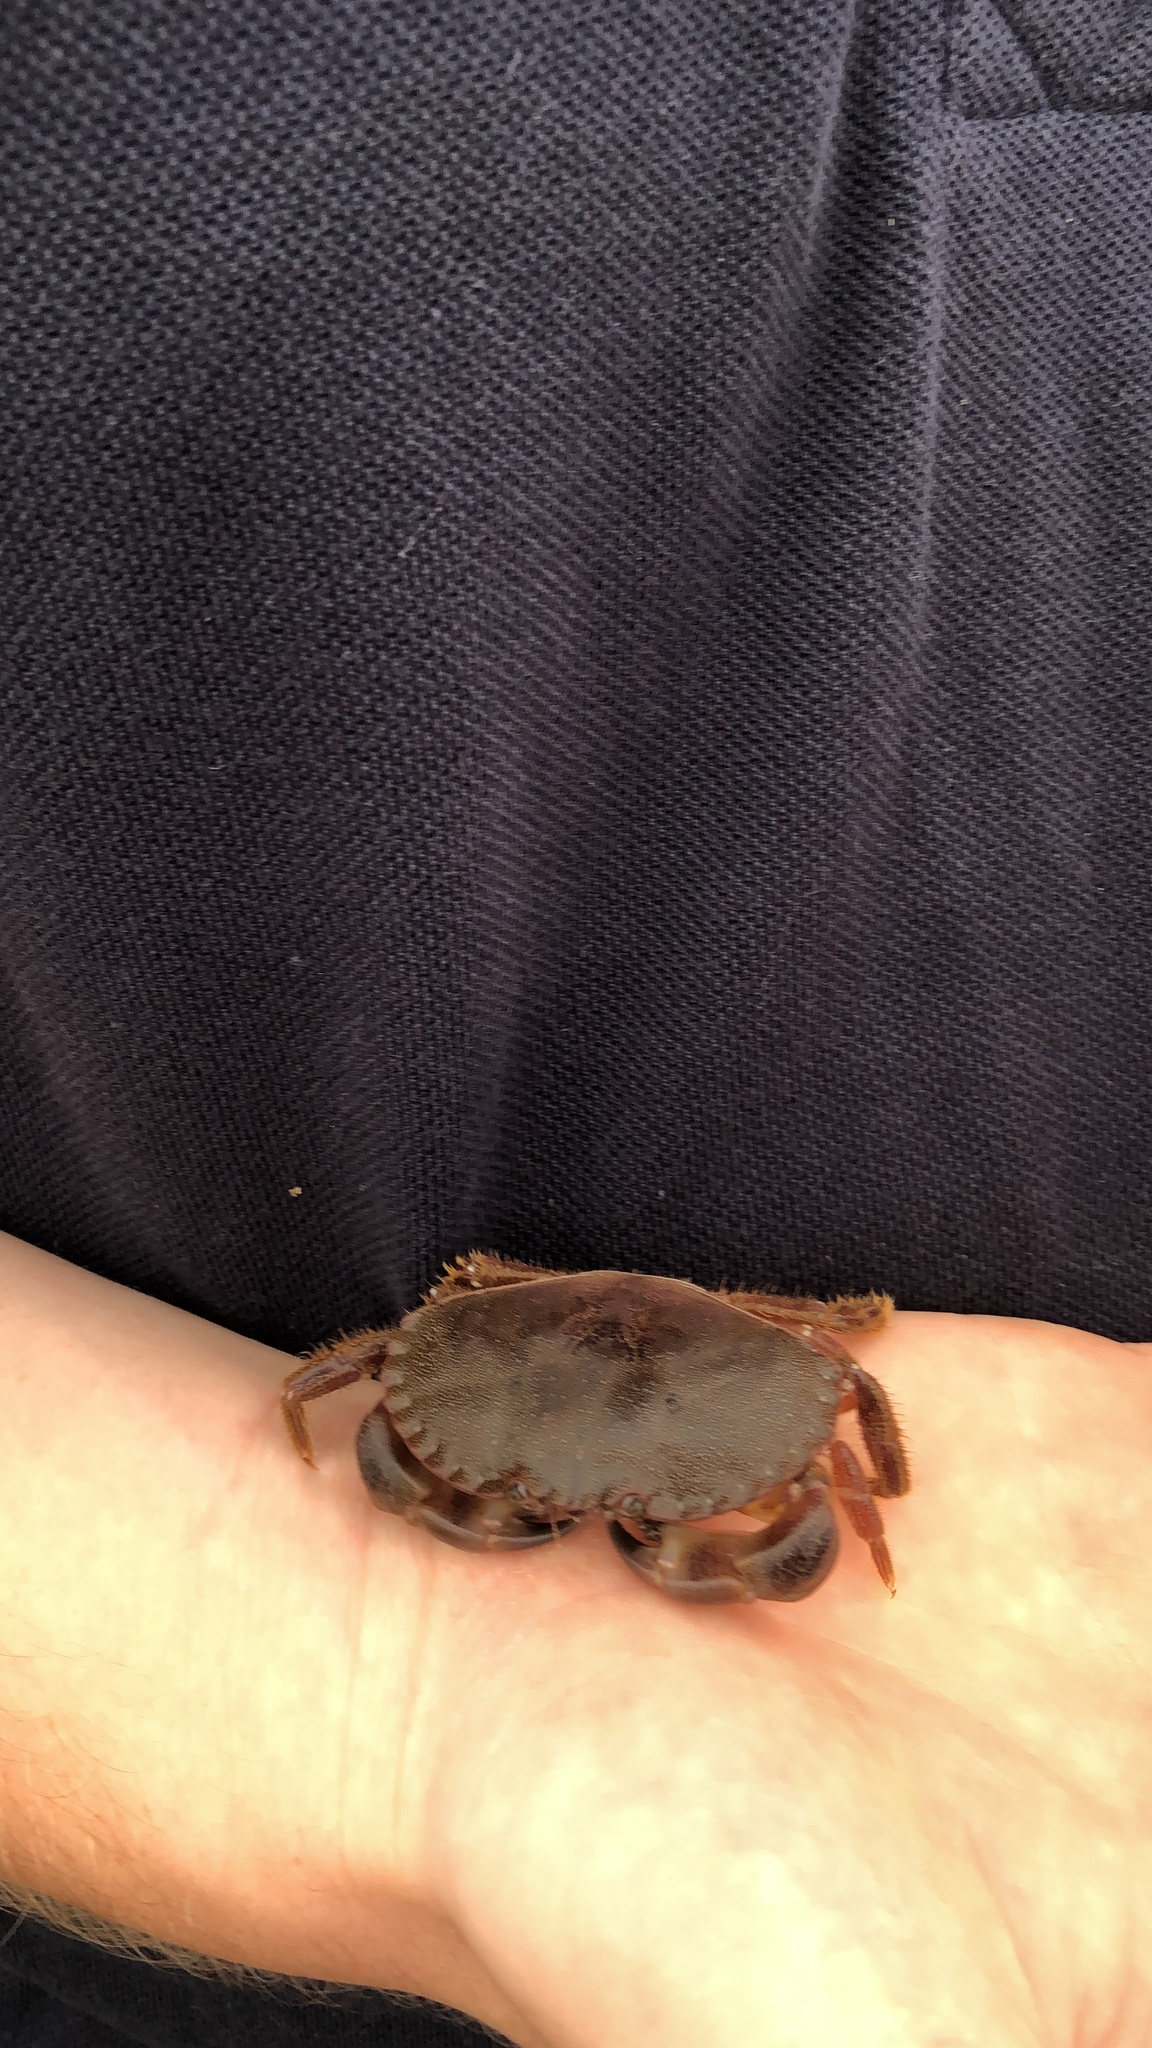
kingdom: Animalia
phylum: Arthropoda
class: Malacostraca
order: Decapoda
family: Cancridae
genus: Cancer
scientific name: Cancer pagurus
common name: Edible crab
